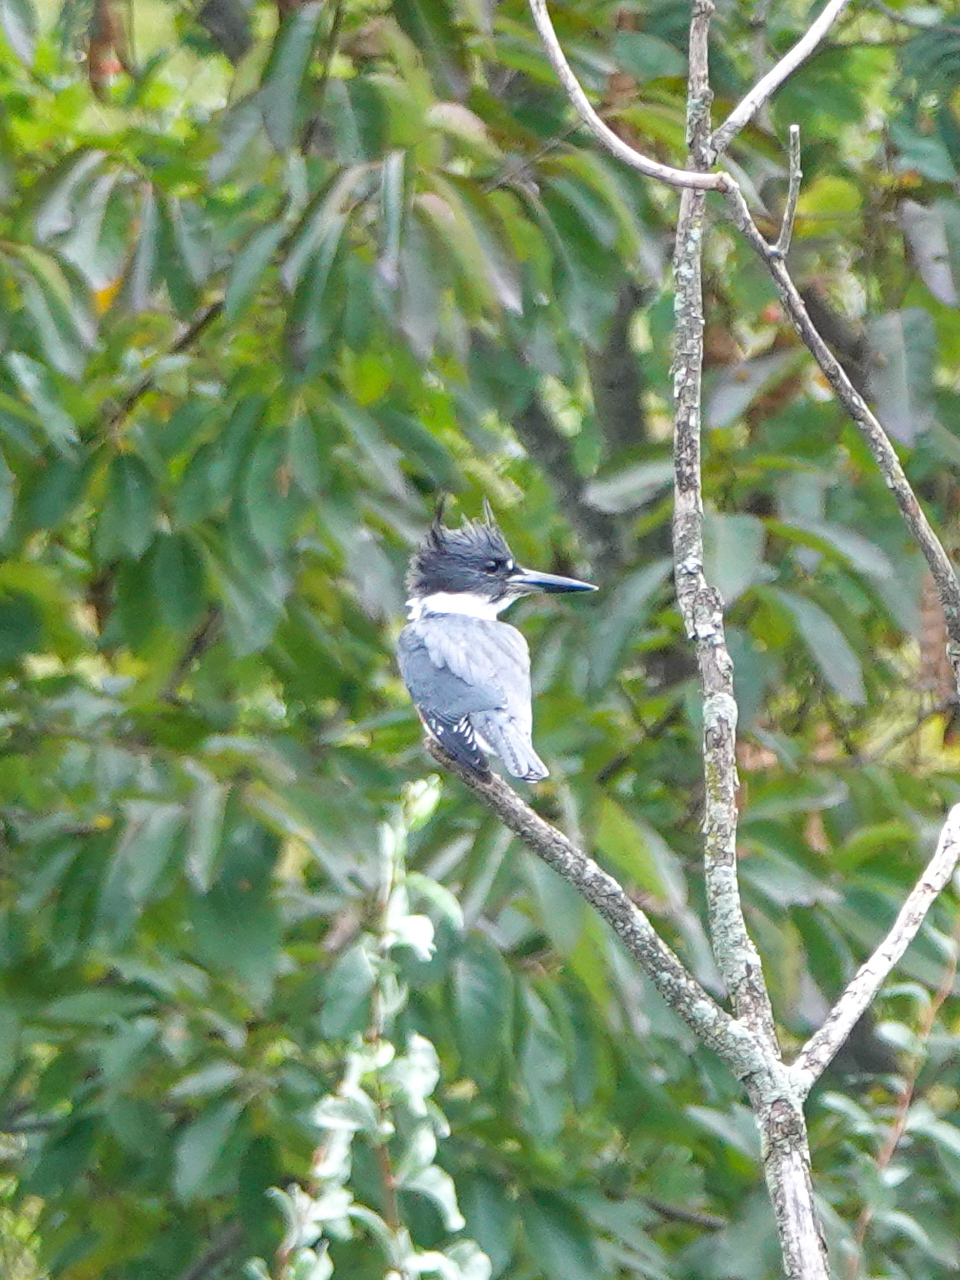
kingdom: Animalia
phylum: Chordata
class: Aves
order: Coraciiformes
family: Alcedinidae
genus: Megaceryle
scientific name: Megaceryle alcyon
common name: Belted kingfisher
